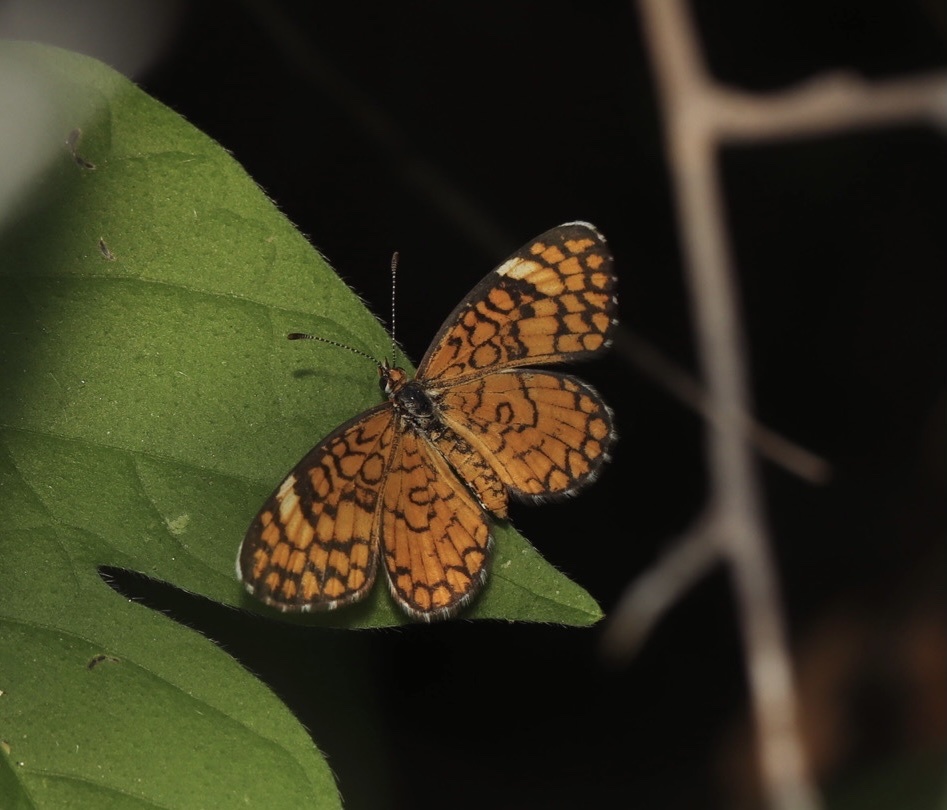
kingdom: Animalia
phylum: Arthropoda
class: Insecta
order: Lepidoptera
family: Nymphalidae
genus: Dymasia
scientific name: Dymasia dymas
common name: Tiny checkerspot
